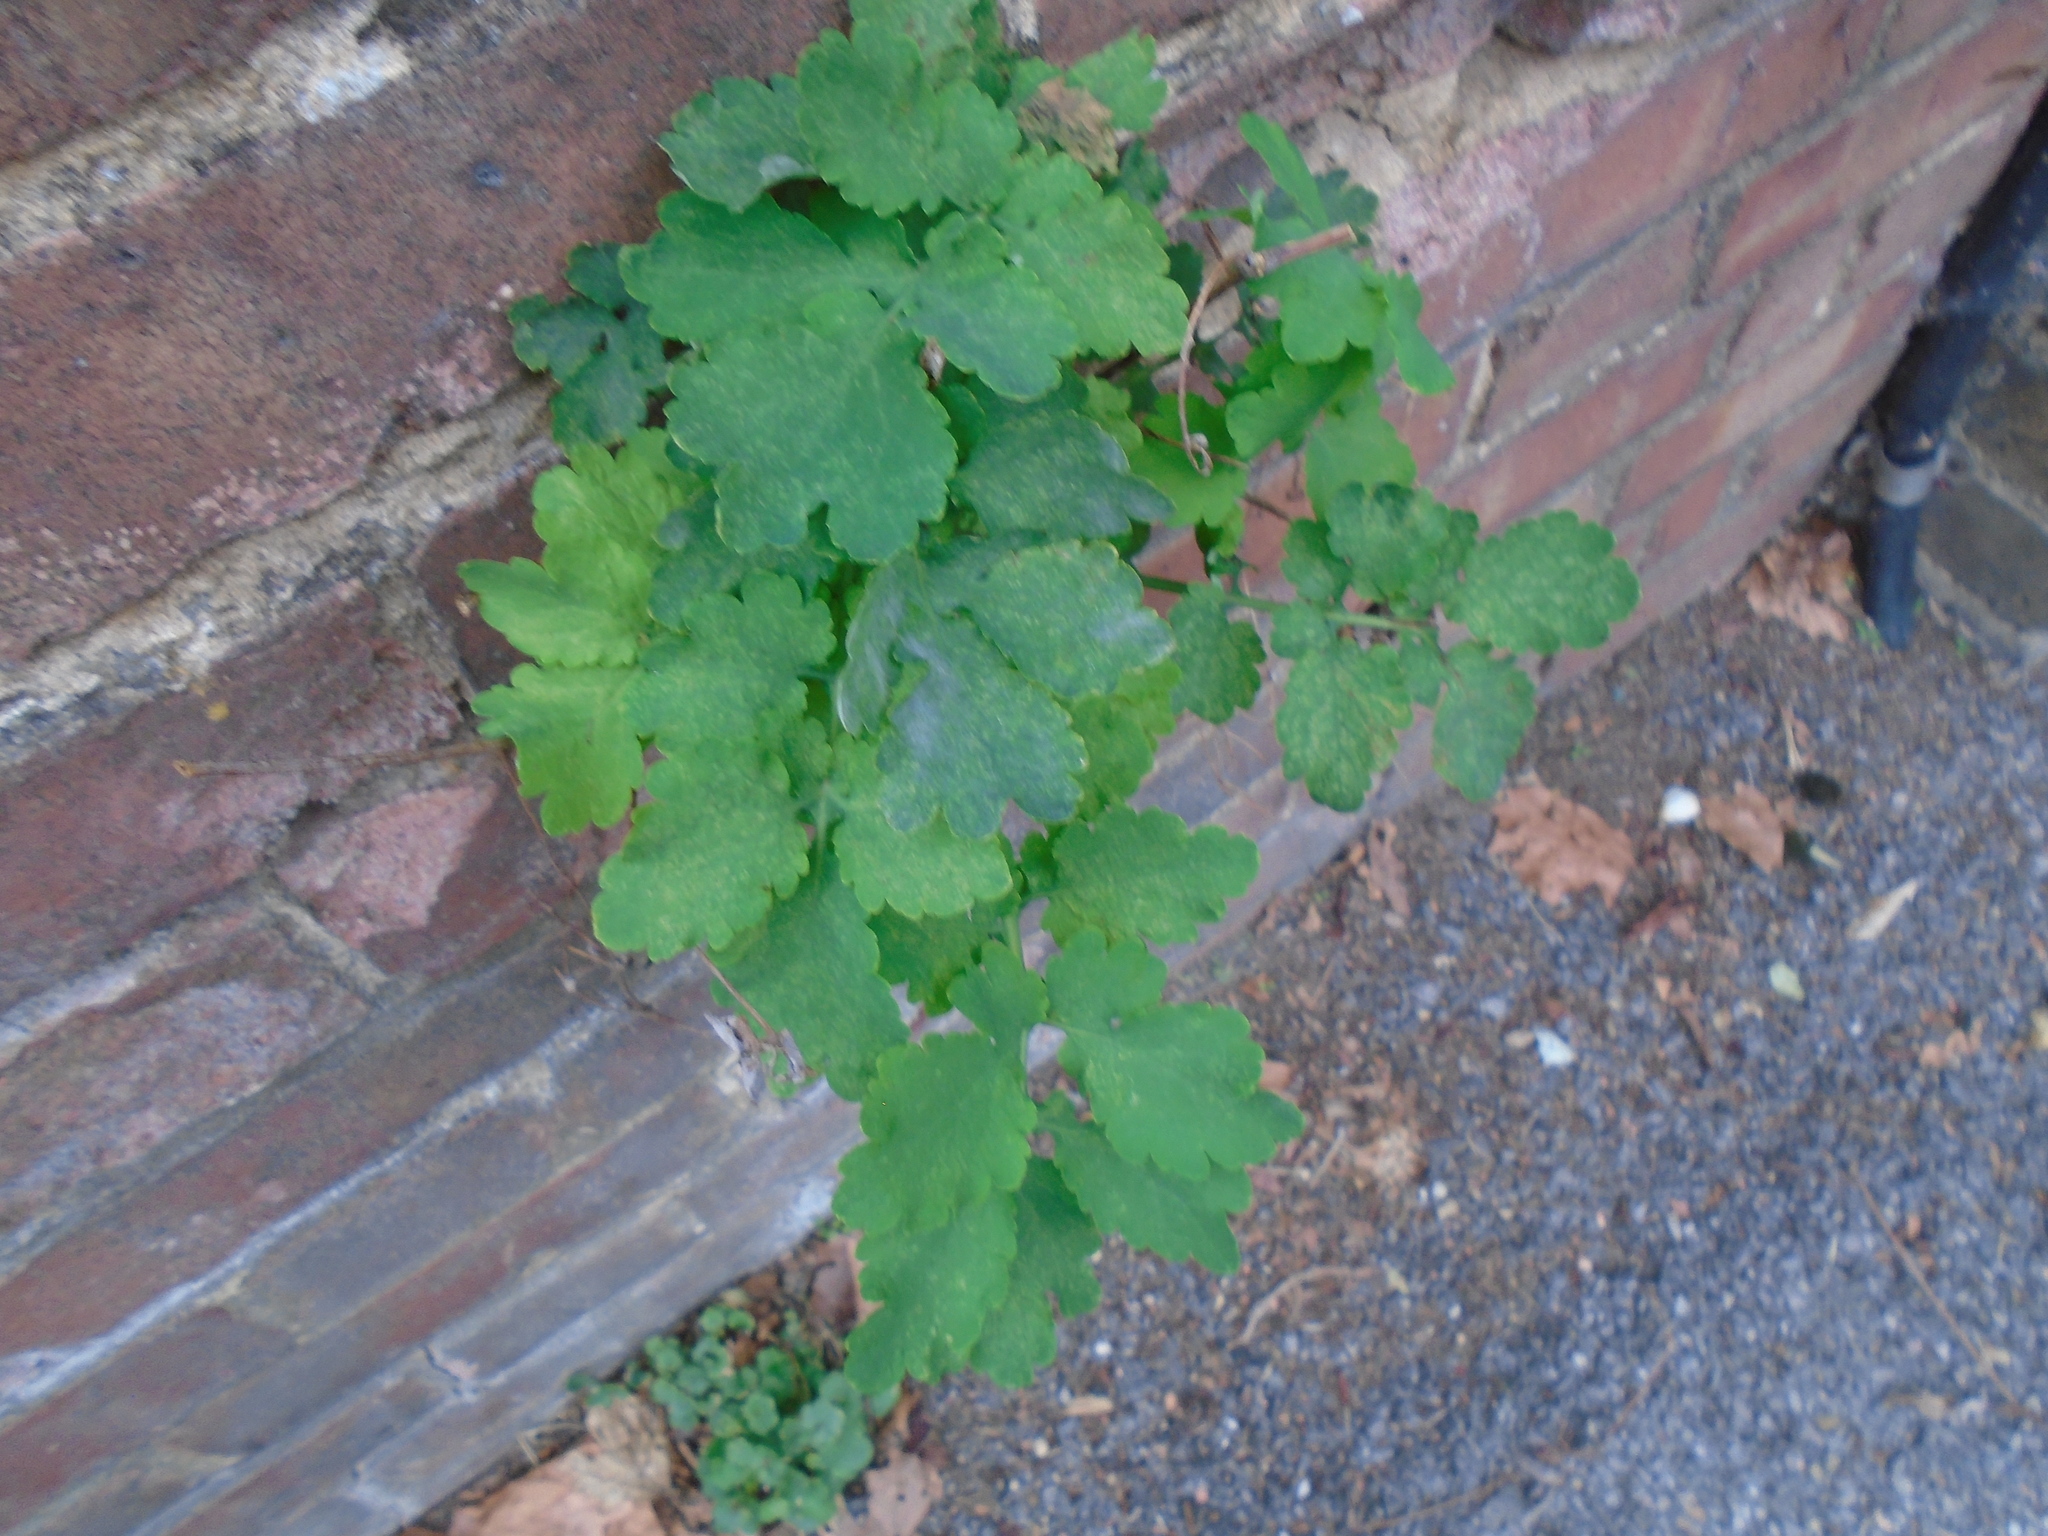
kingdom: Plantae
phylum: Tracheophyta
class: Magnoliopsida
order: Ranunculales
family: Papaveraceae
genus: Chelidonium
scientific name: Chelidonium majus
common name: Greater celandine
